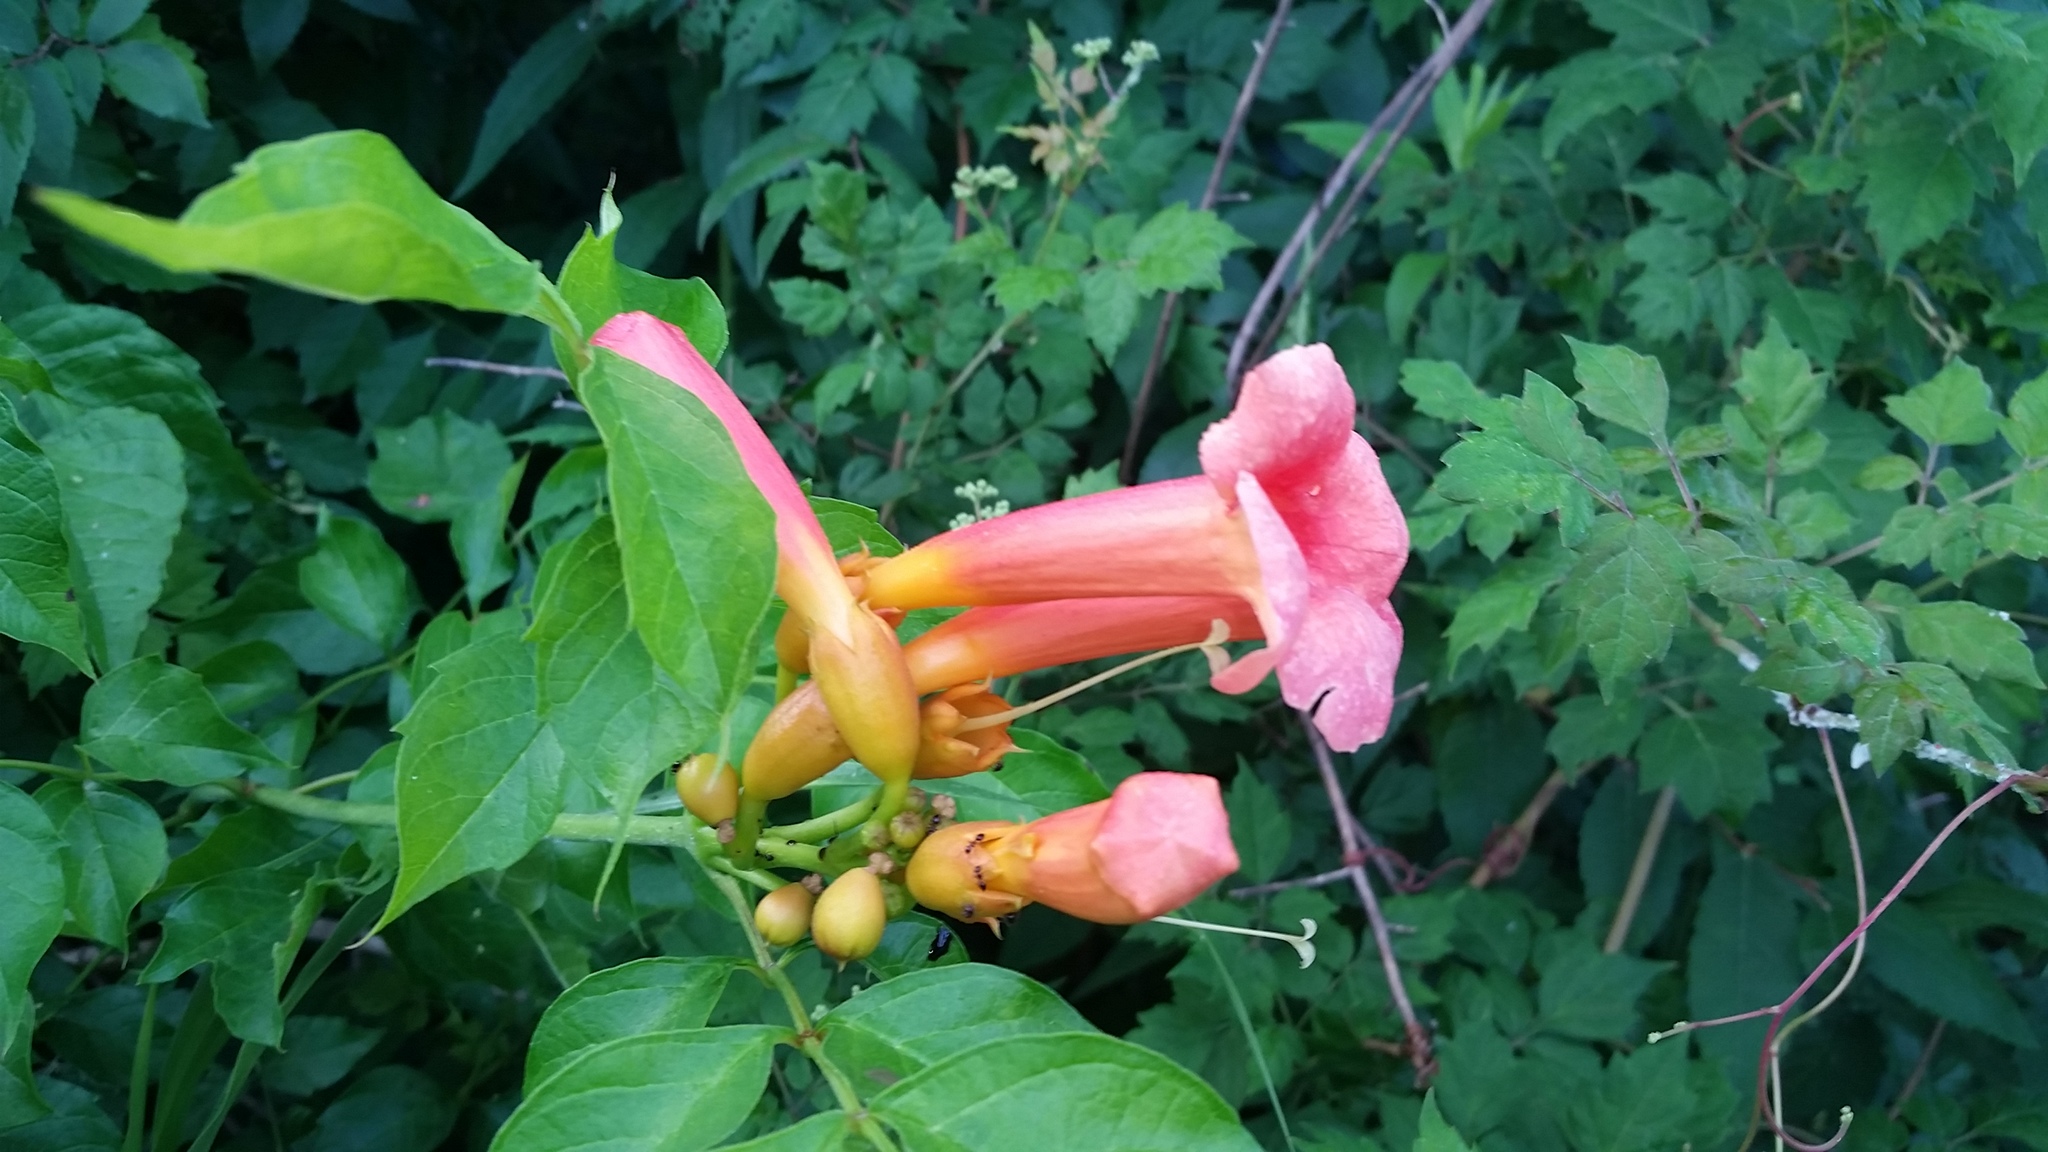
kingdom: Plantae
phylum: Tracheophyta
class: Magnoliopsida
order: Lamiales
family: Bignoniaceae
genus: Campsis
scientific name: Campsis radicans
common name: Trumpet-creeper
